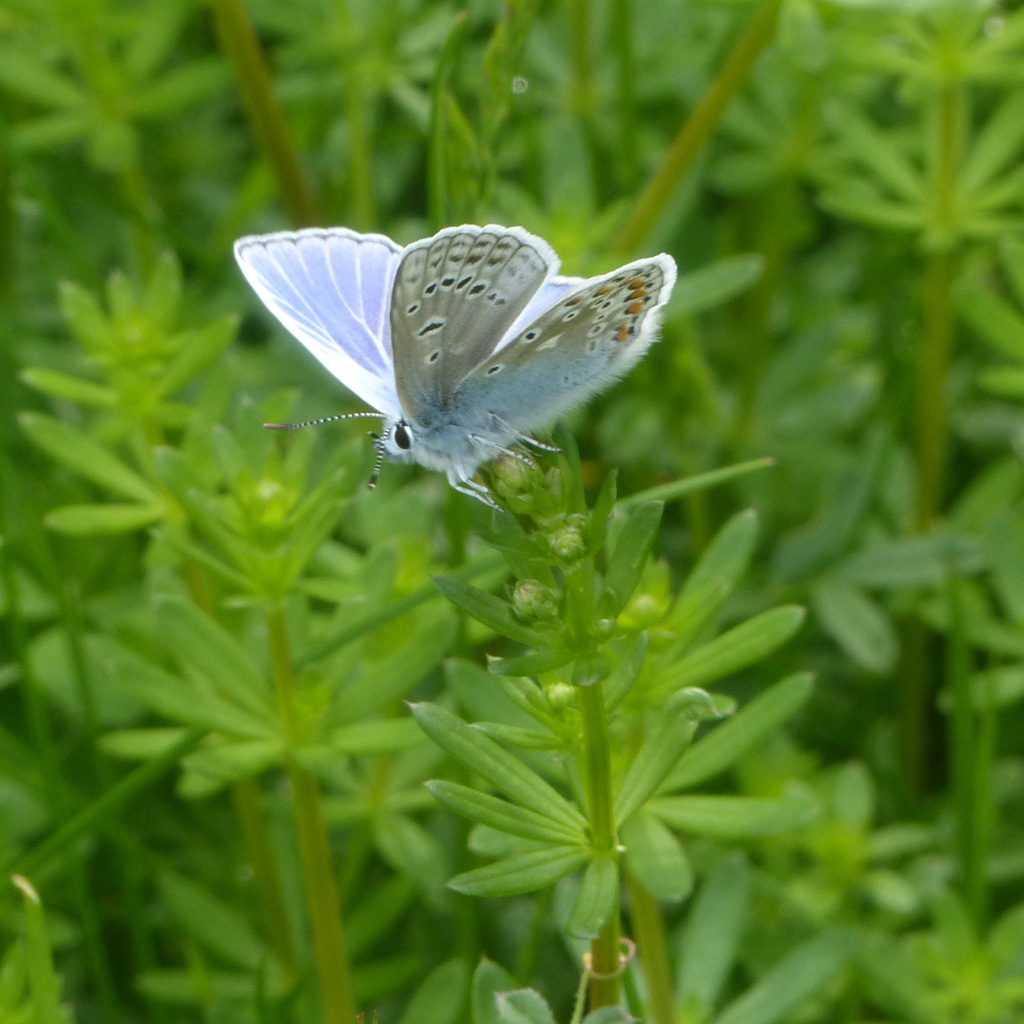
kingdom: Animalia
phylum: Arthropoda
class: Insecta
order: Lepidoptera
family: Lycaenidae
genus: Polyommatus
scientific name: Polyommatus icarus
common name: Common blue
